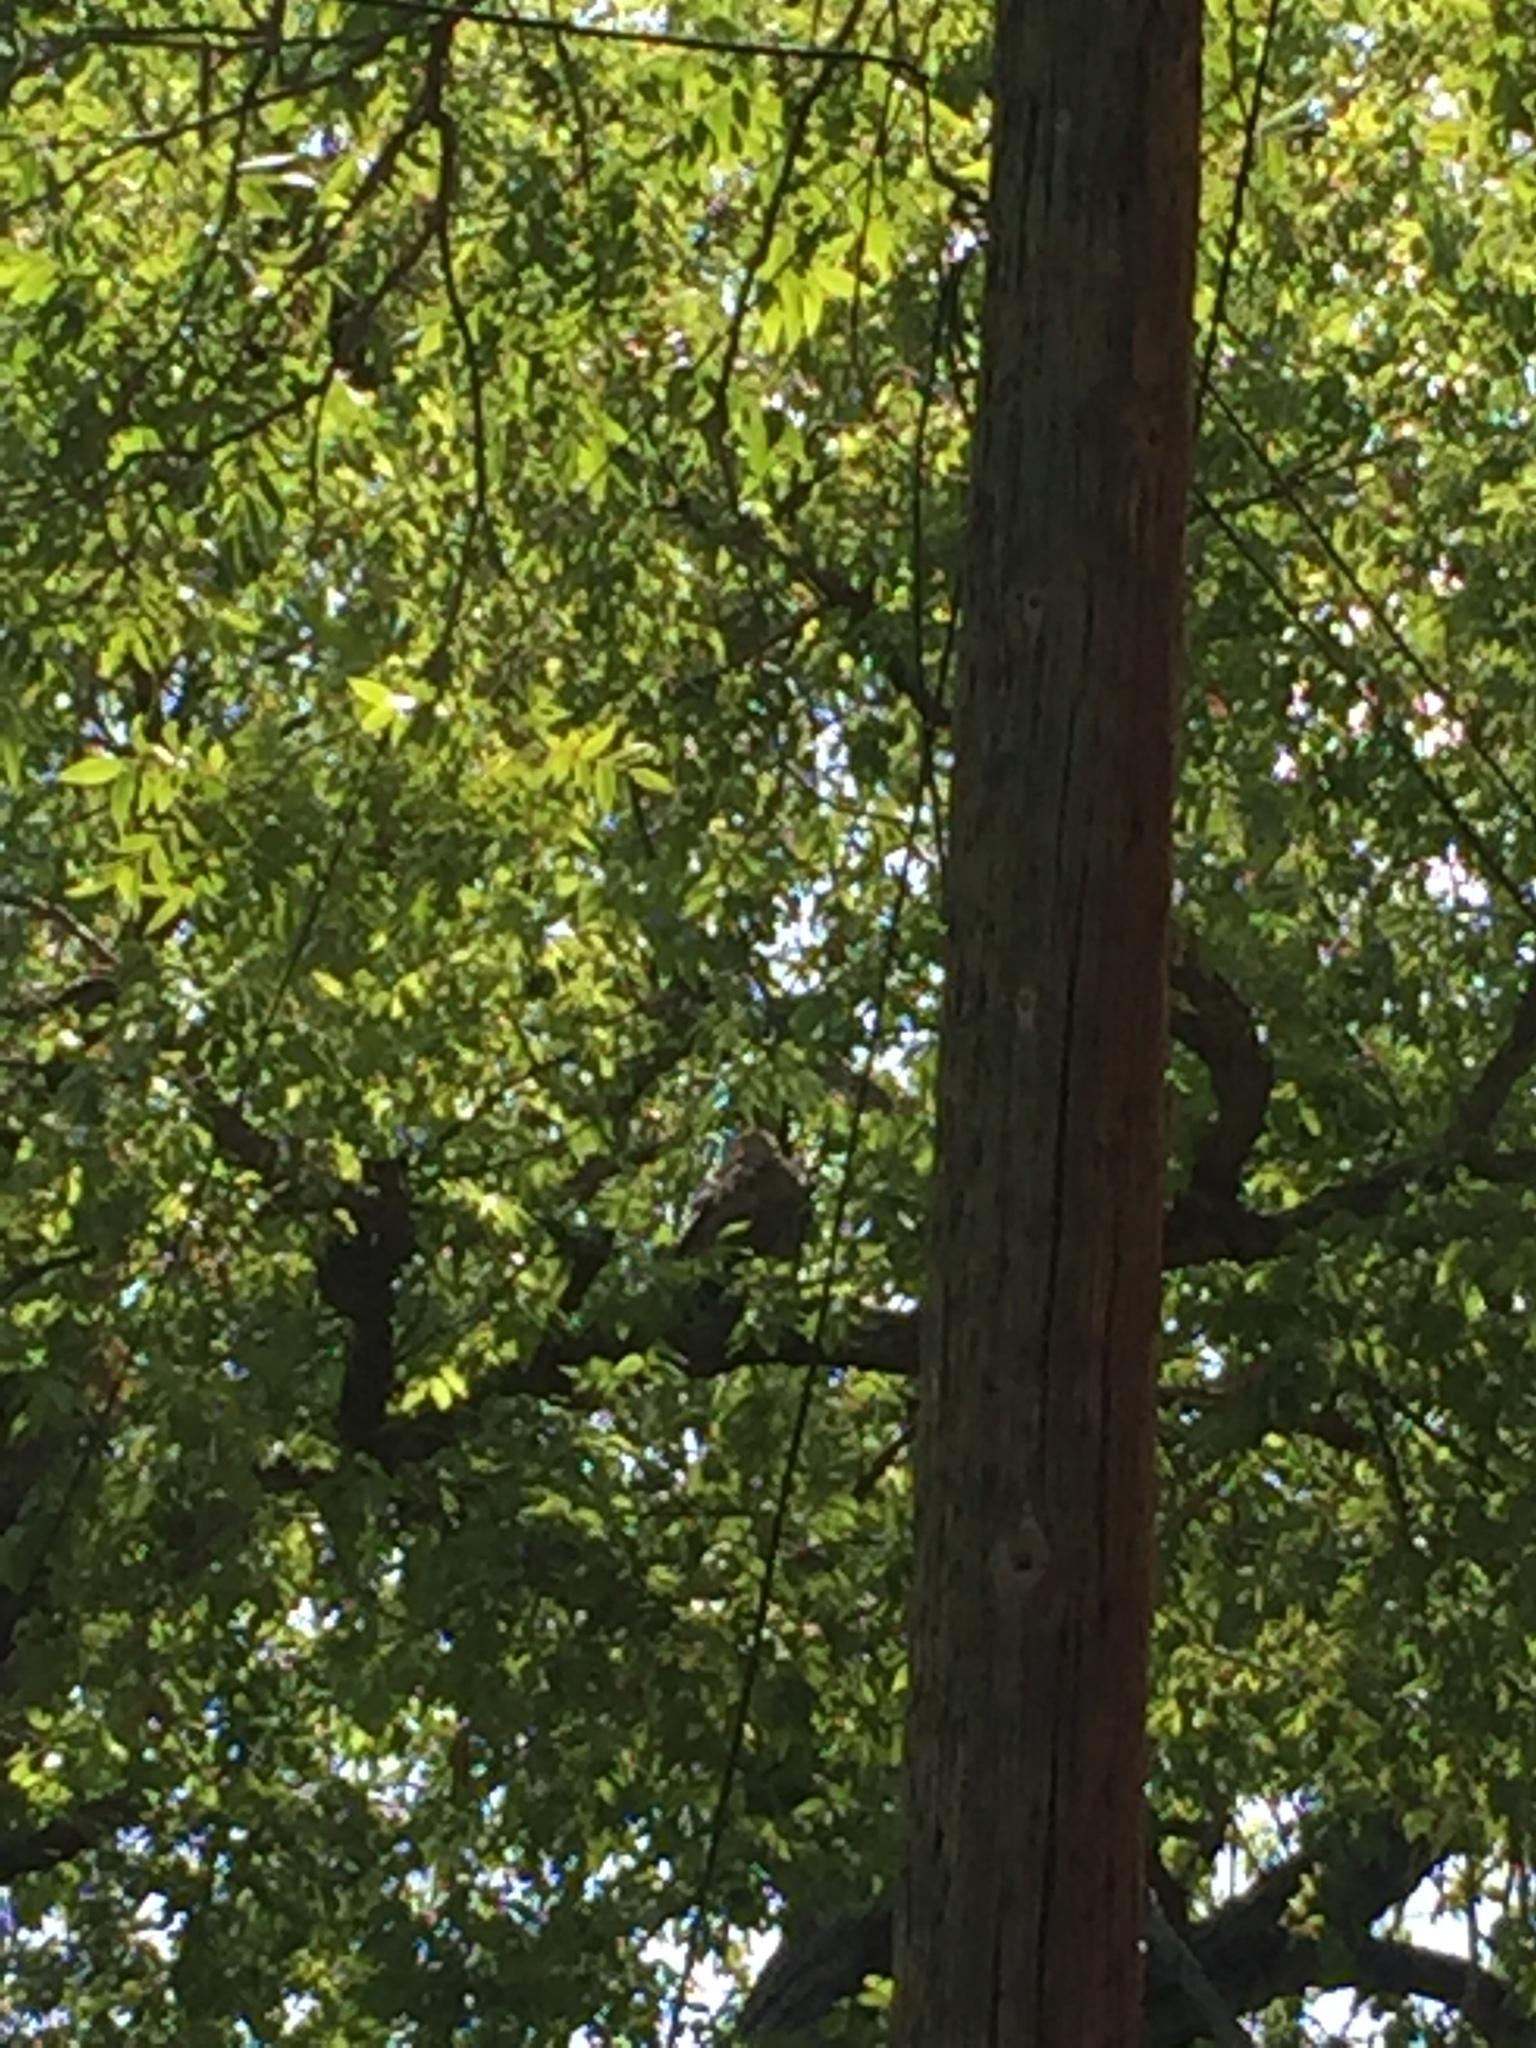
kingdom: Animalia
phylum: Chordata
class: Aves
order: Accipitriformes
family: Accipitridae
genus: Buteo
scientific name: Buteo jamaicensis
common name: Red-tailed hawk
